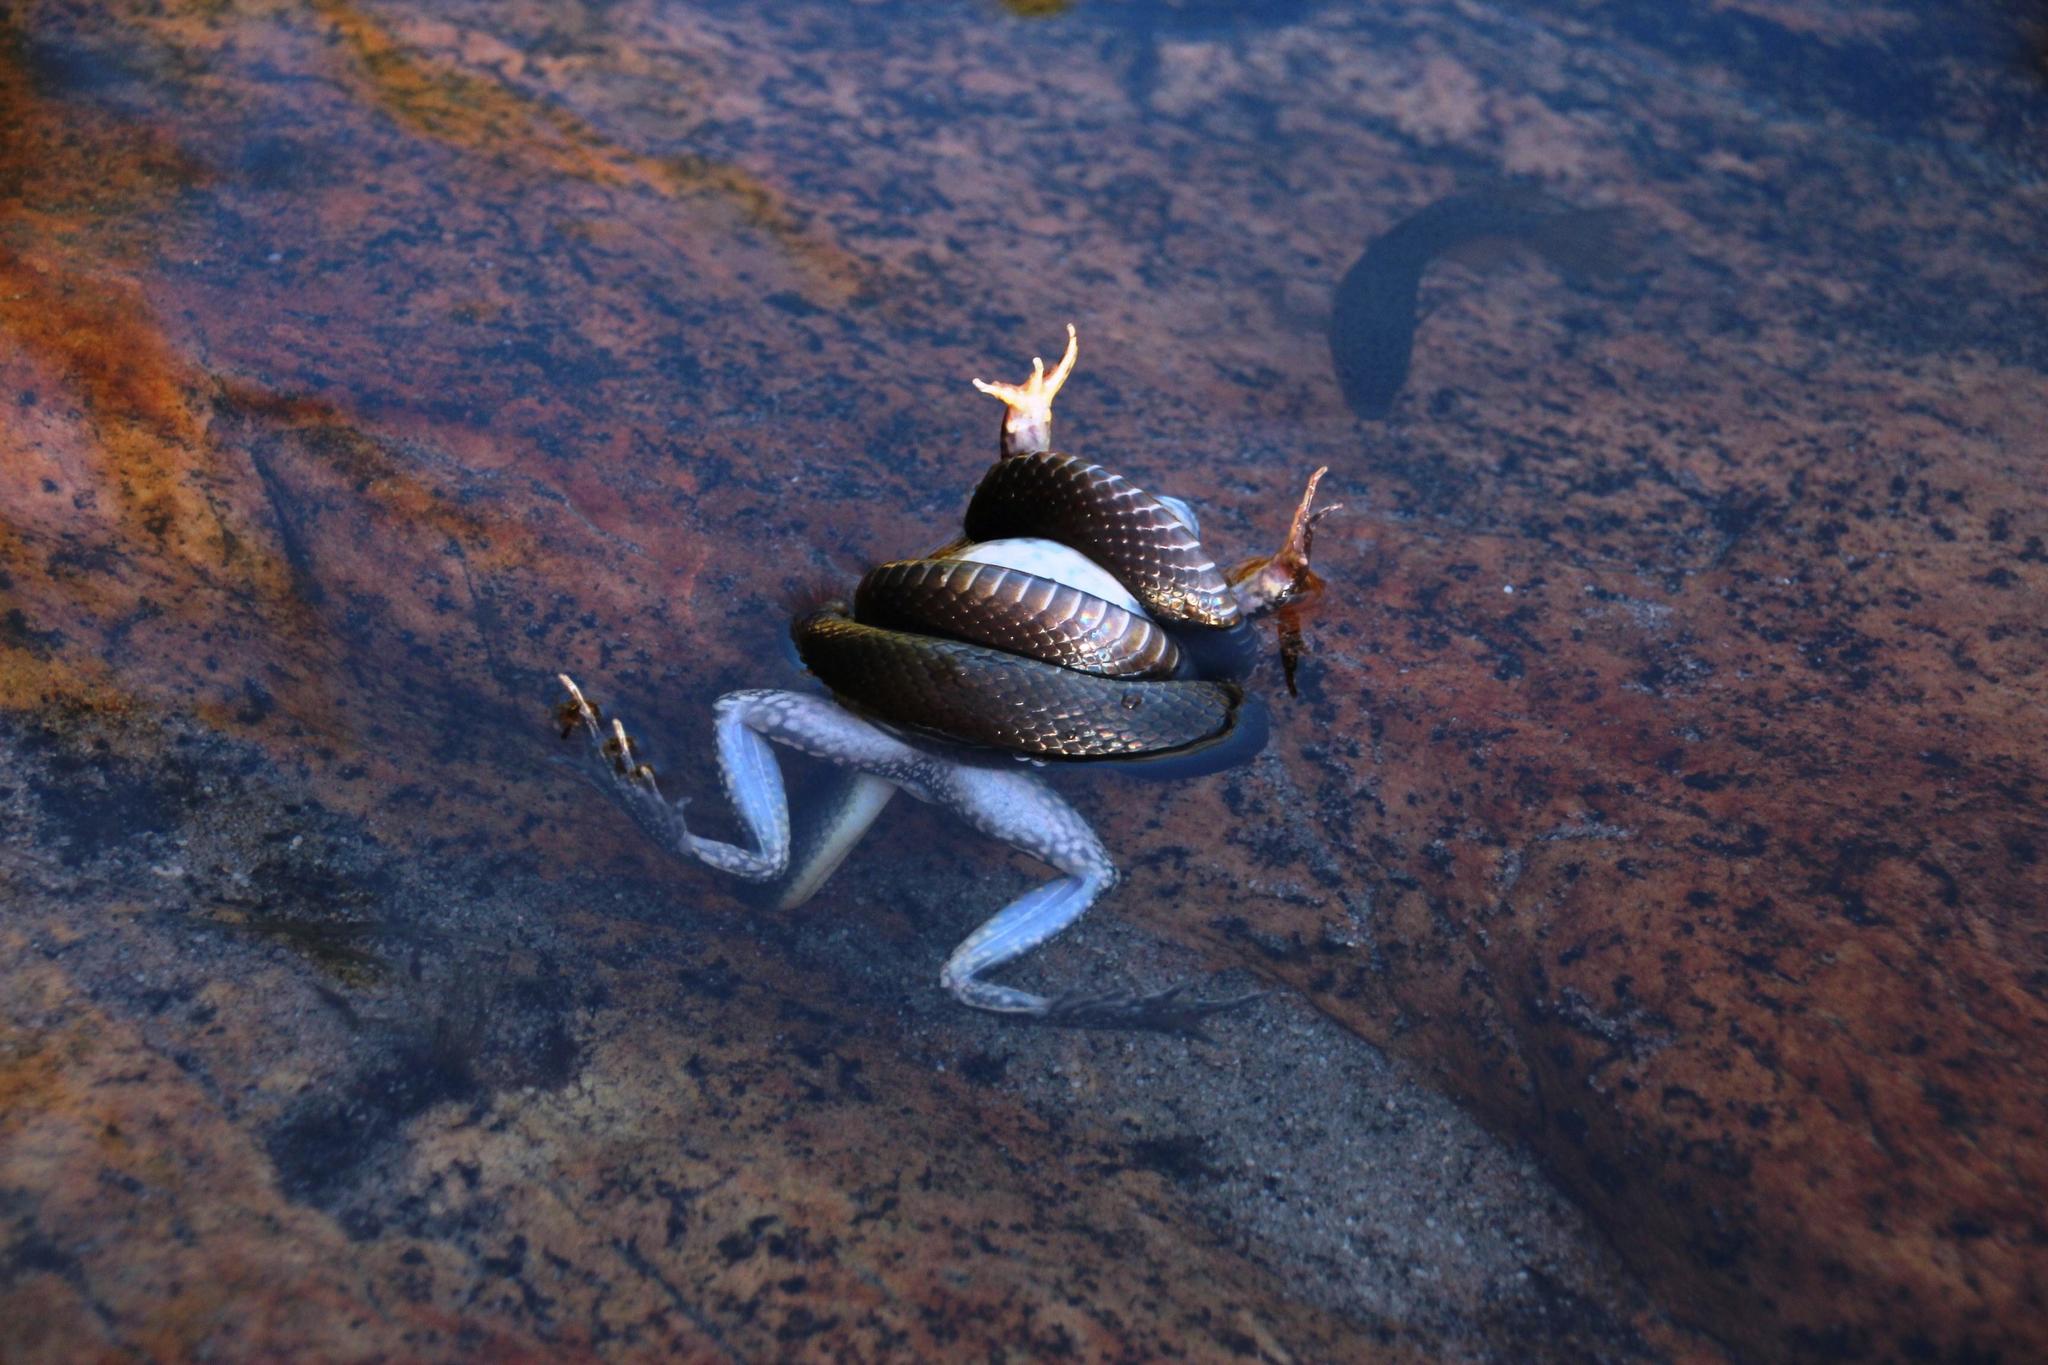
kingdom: Animalia
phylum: Chordata
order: Perciformes
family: Anabantidae
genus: Sandelia
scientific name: Sandelia capensis
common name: Cape kurper
